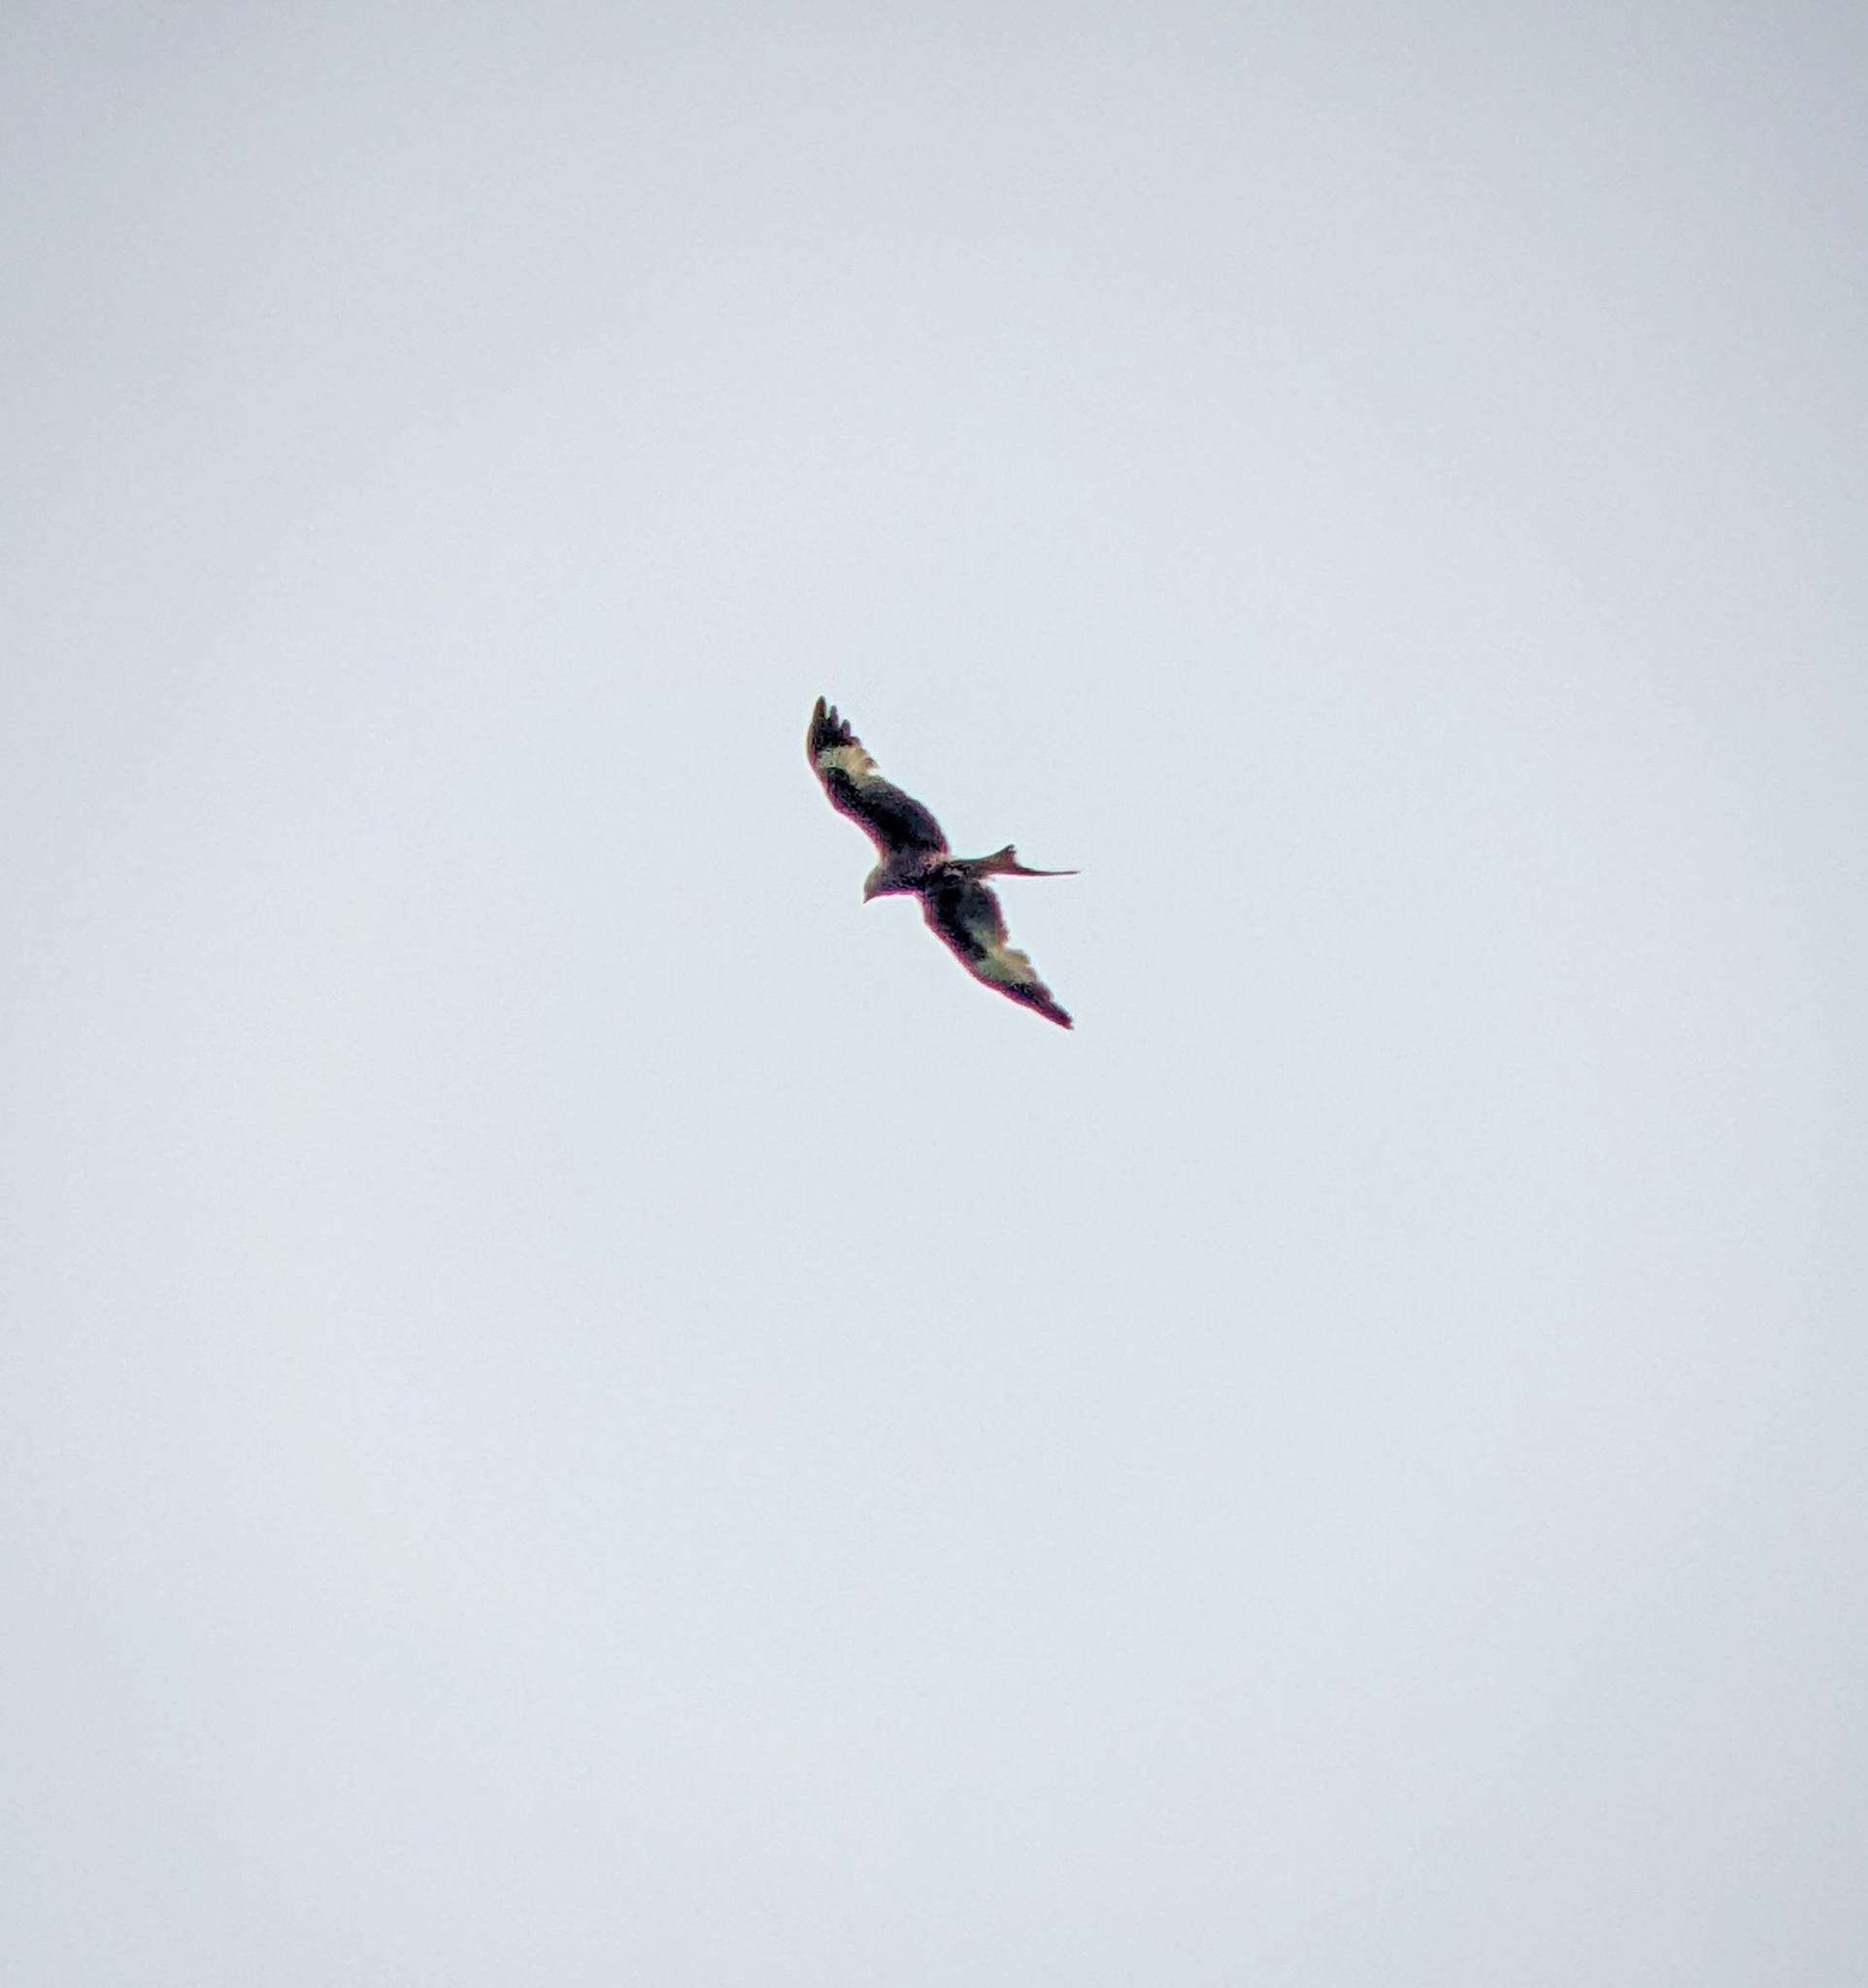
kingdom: Animalia
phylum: Chordata
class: Aves
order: Accipitriformes
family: Accipitridae
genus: Milvus
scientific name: Milvus milvus
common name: Red kite
